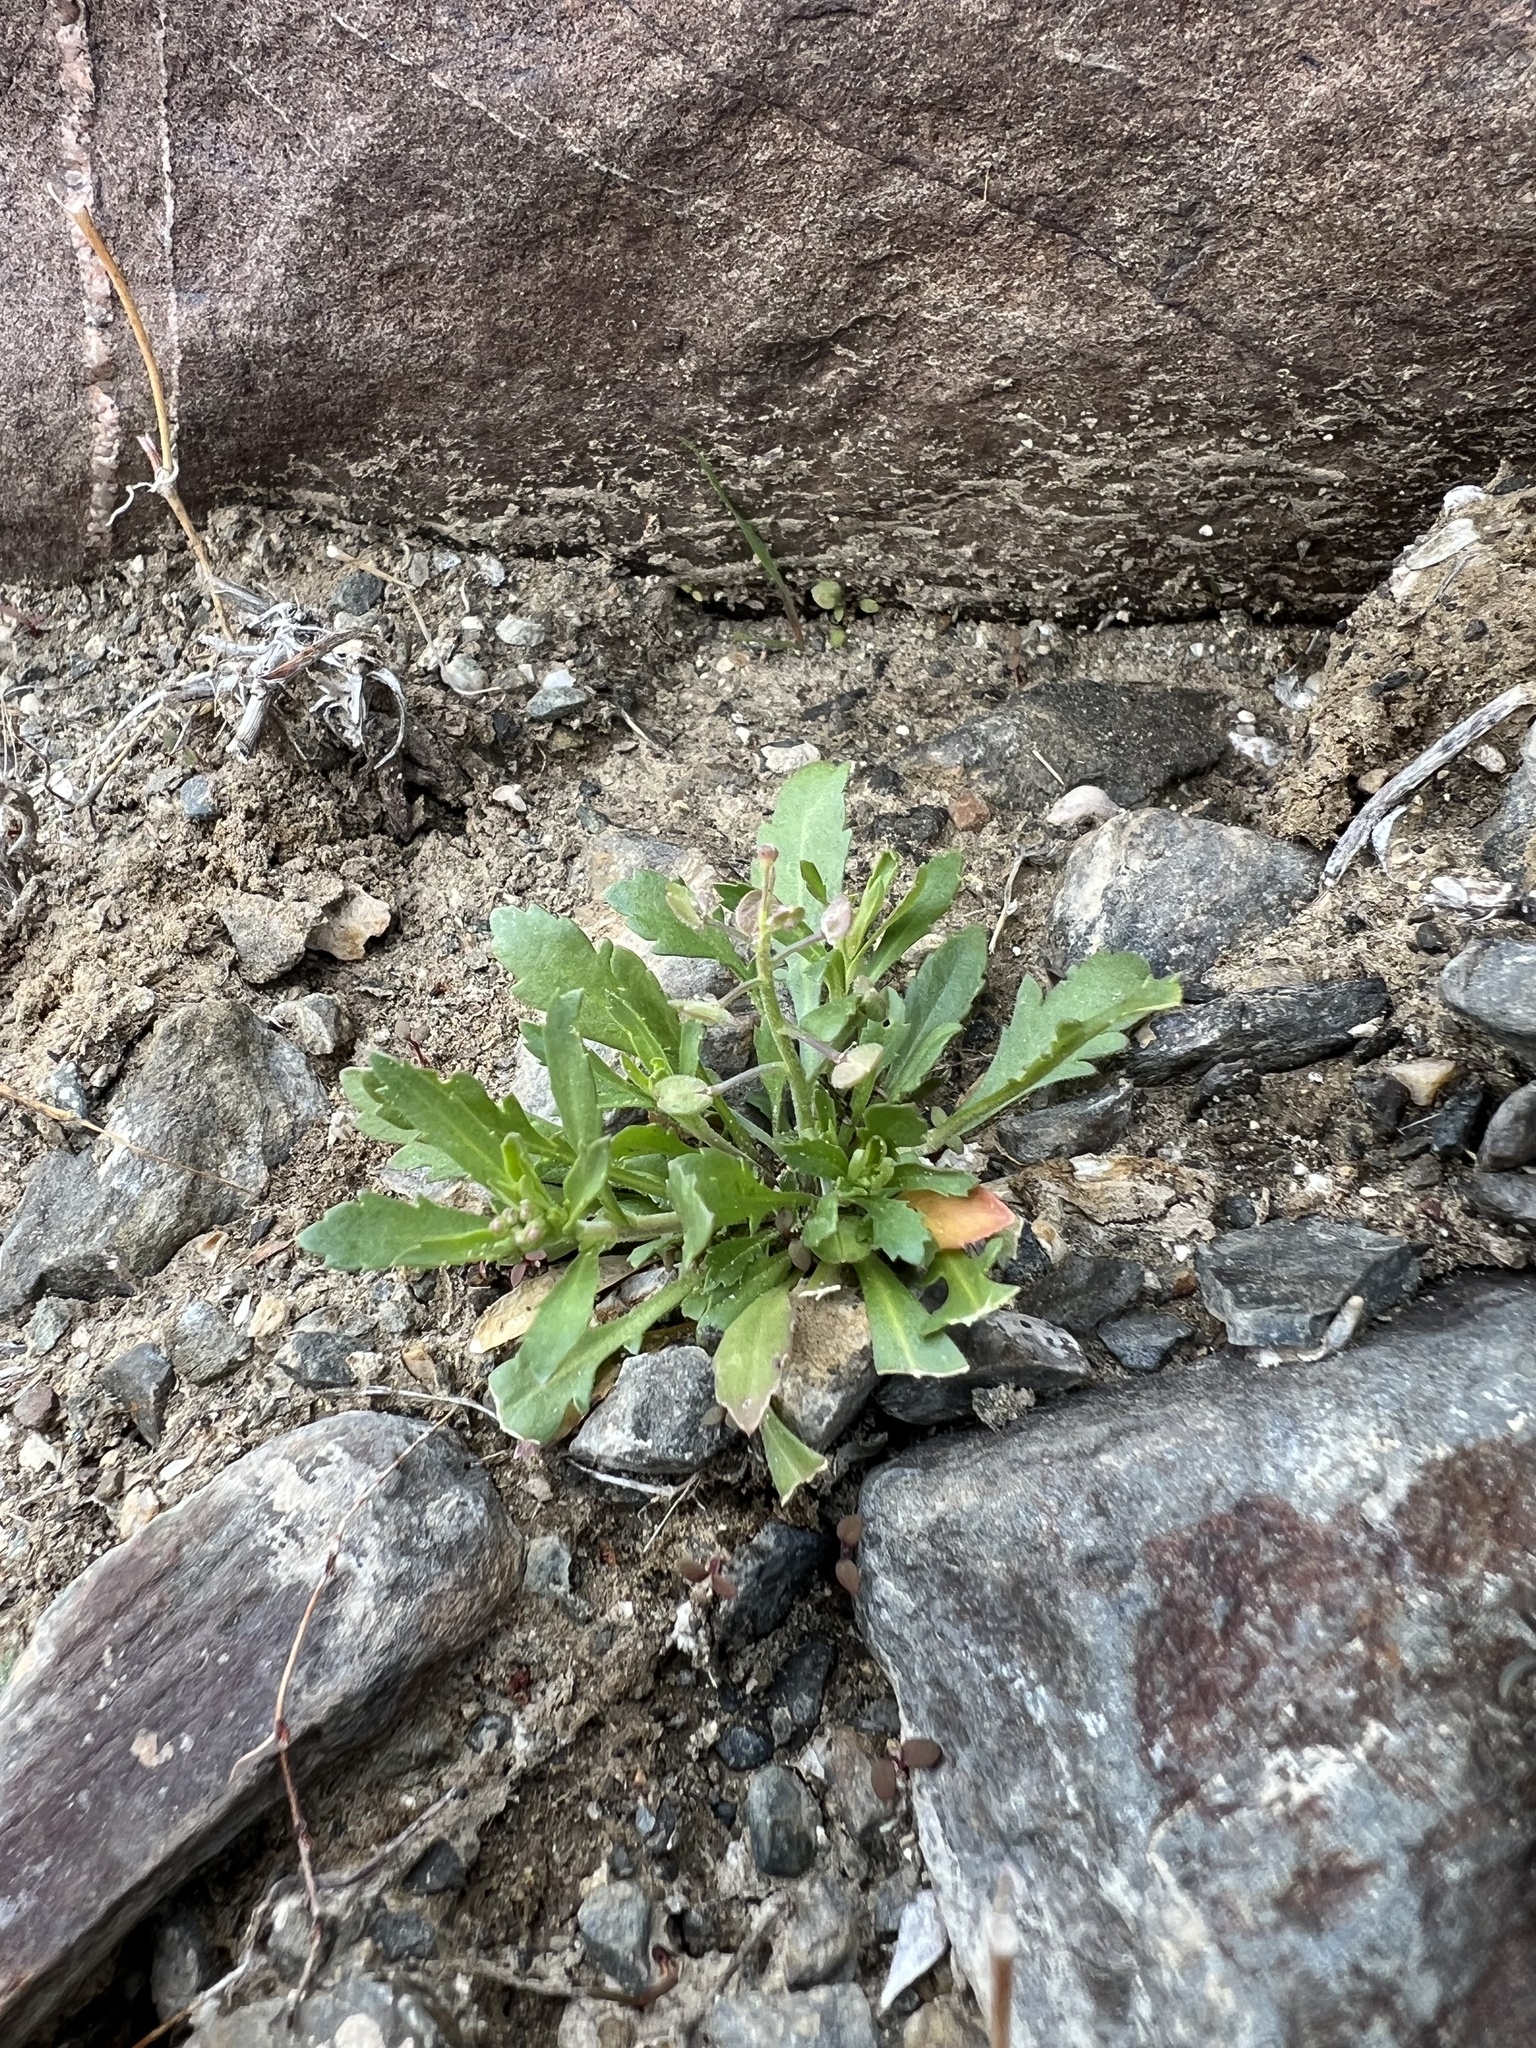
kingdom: Plantae
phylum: Tracheophyta
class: Magnoliopsida
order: Brassicales
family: Brassicaceae
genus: Lepidium
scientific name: Lepidium lasiocarpum
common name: Hairy-pod pepperwort
